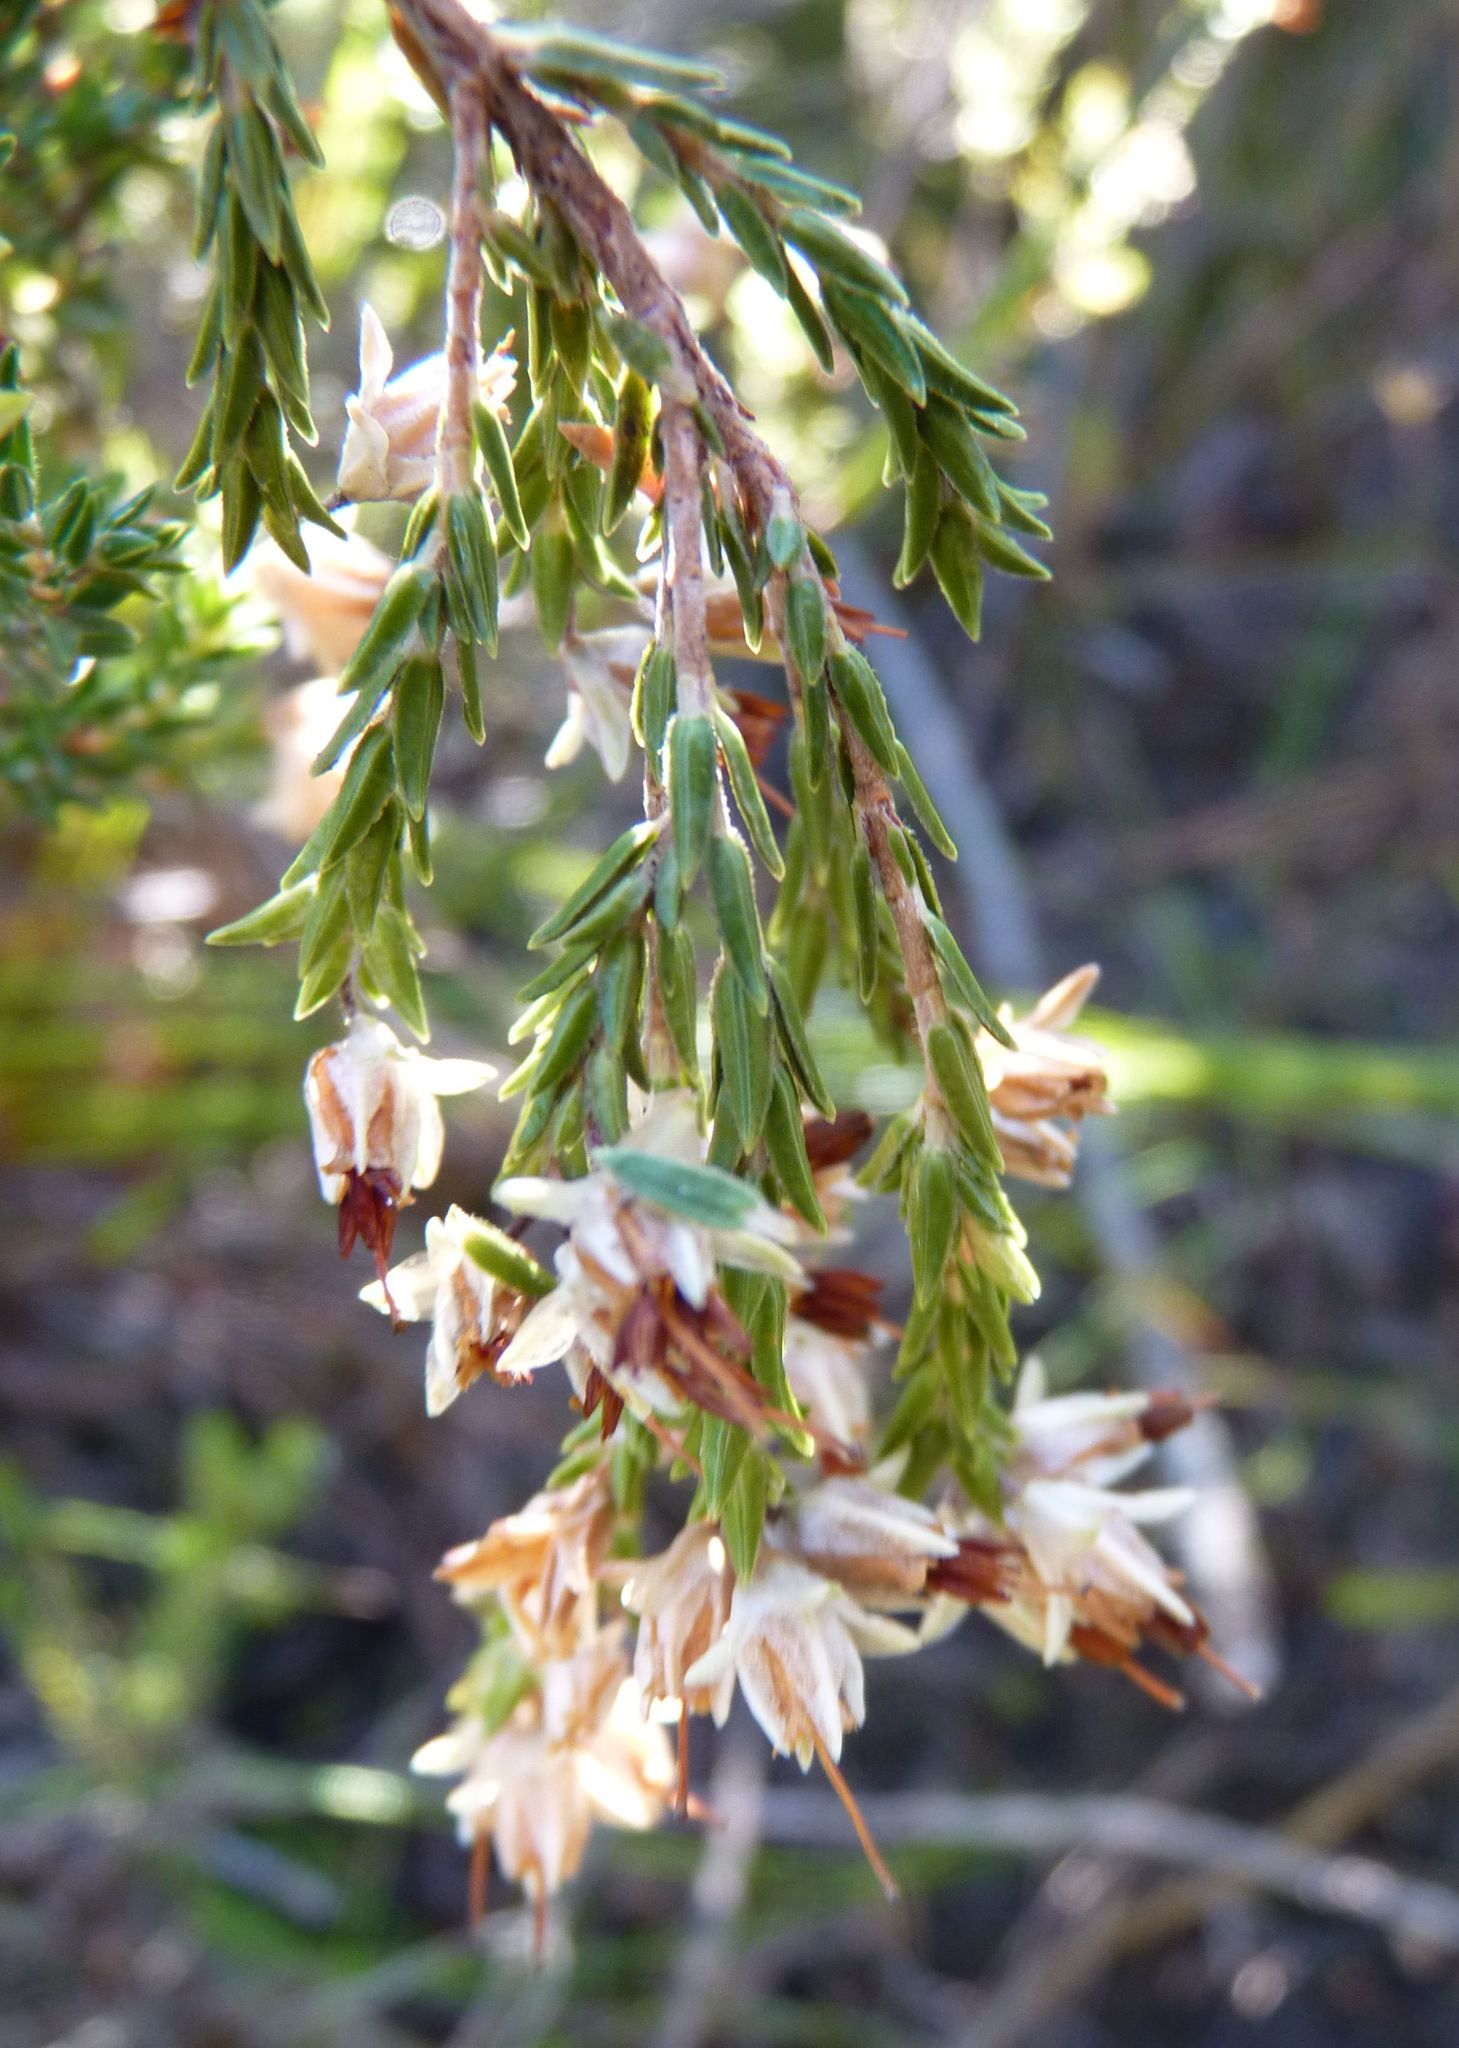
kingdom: Plantae
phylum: Tracheophyta
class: Magnoliopsida
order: Ericales
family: Ericaceae
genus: Erica
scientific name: Erica triceps
